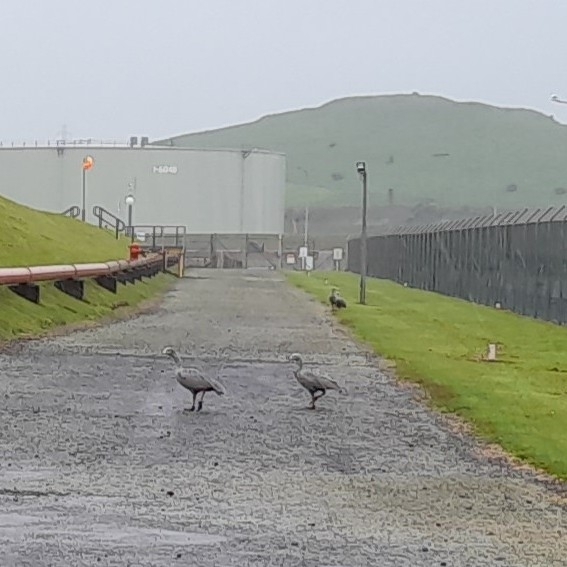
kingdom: Animalia
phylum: Chordata
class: Aves
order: Anseriformes
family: Anatidae
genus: Cereopsis
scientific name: Cereopsis novaehollandiae
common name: Cape barren goose
